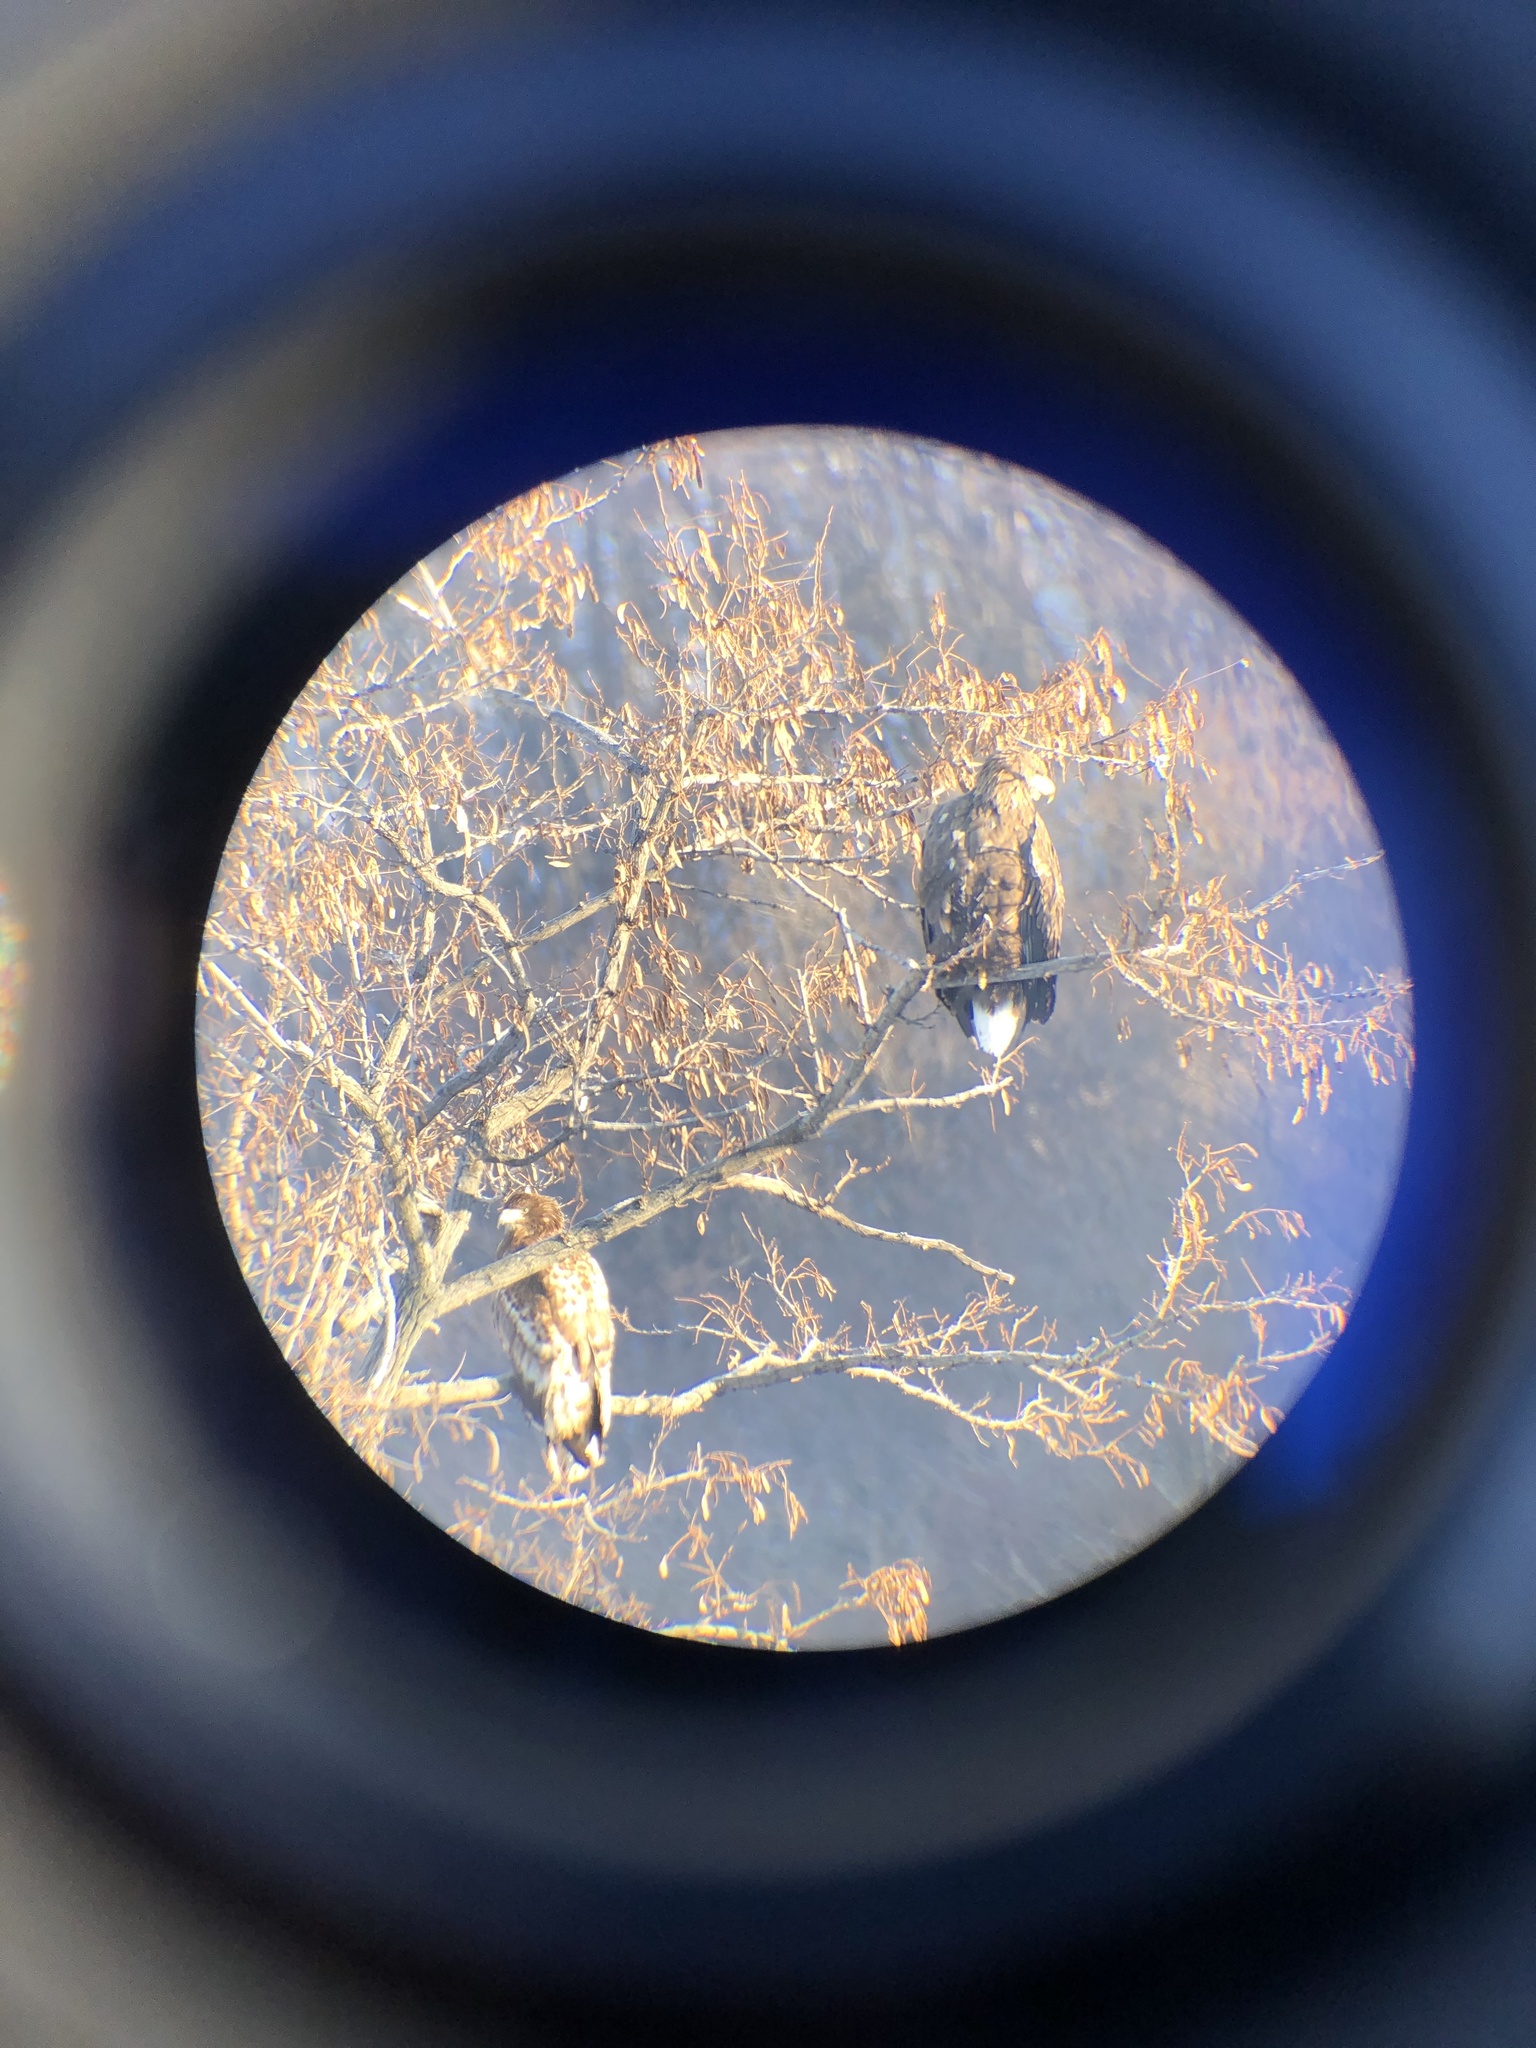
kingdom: Animalia
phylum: Chordata
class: Aves
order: Accipitriformes
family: Accipitridae
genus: Haliaeetus
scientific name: Haliaeetus albicilla
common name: White-tailed eagle
